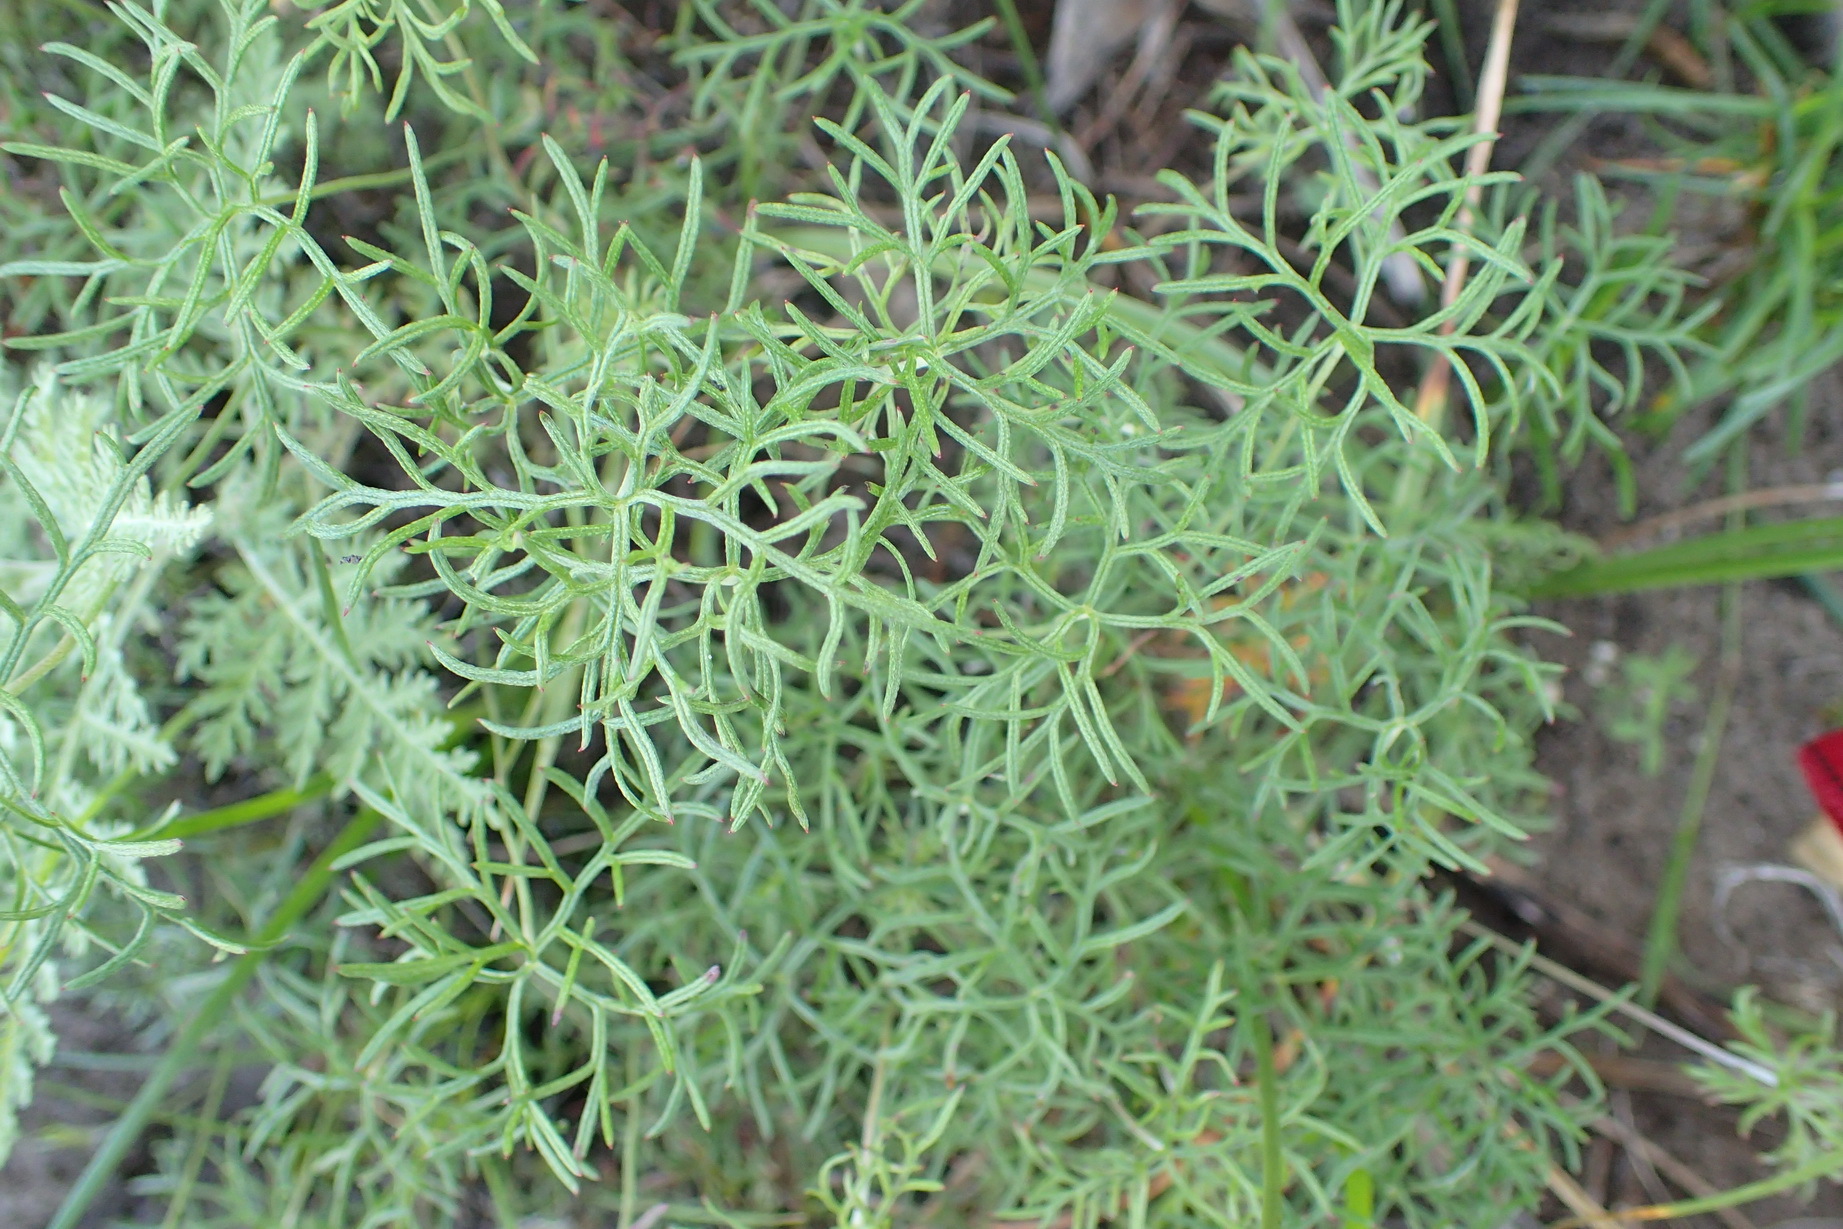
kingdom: Plantae
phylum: Tracheophyta
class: Magnoliopsida
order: Geraniales
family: Geraniaceae
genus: Geranium
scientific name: Geranium incanum
